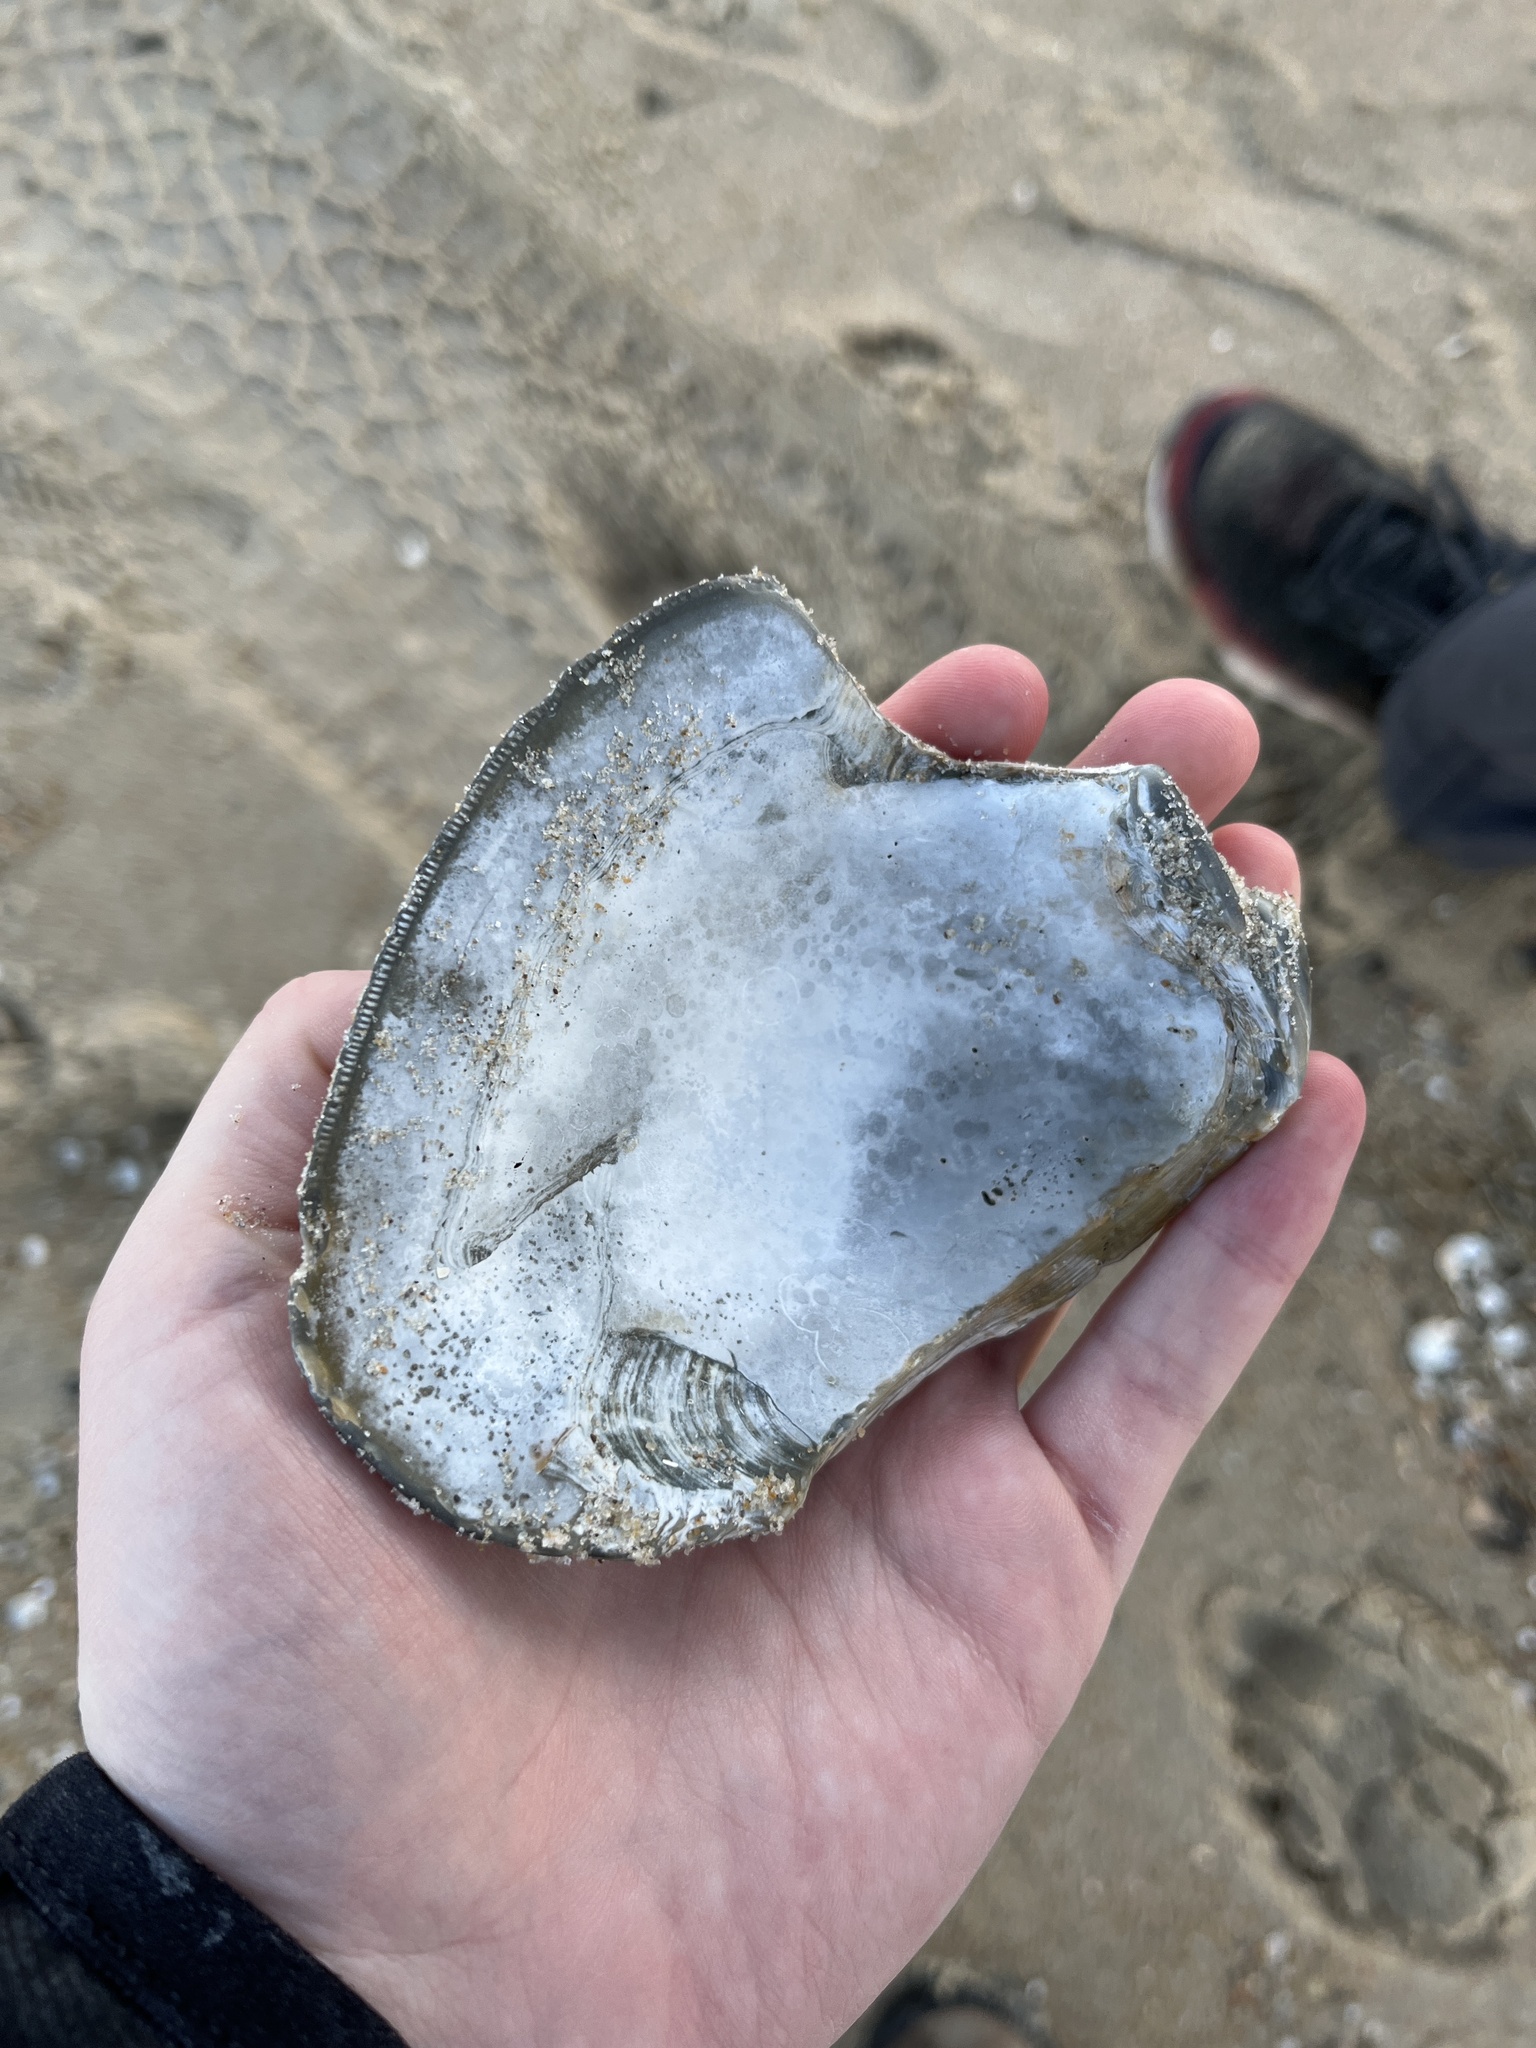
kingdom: Animalia
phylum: Mollusca
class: Bivalvia
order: Venerida
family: Veneridae
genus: Mercenaria
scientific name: Mercenaria campechiensis
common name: Südliche quahog-muschel
